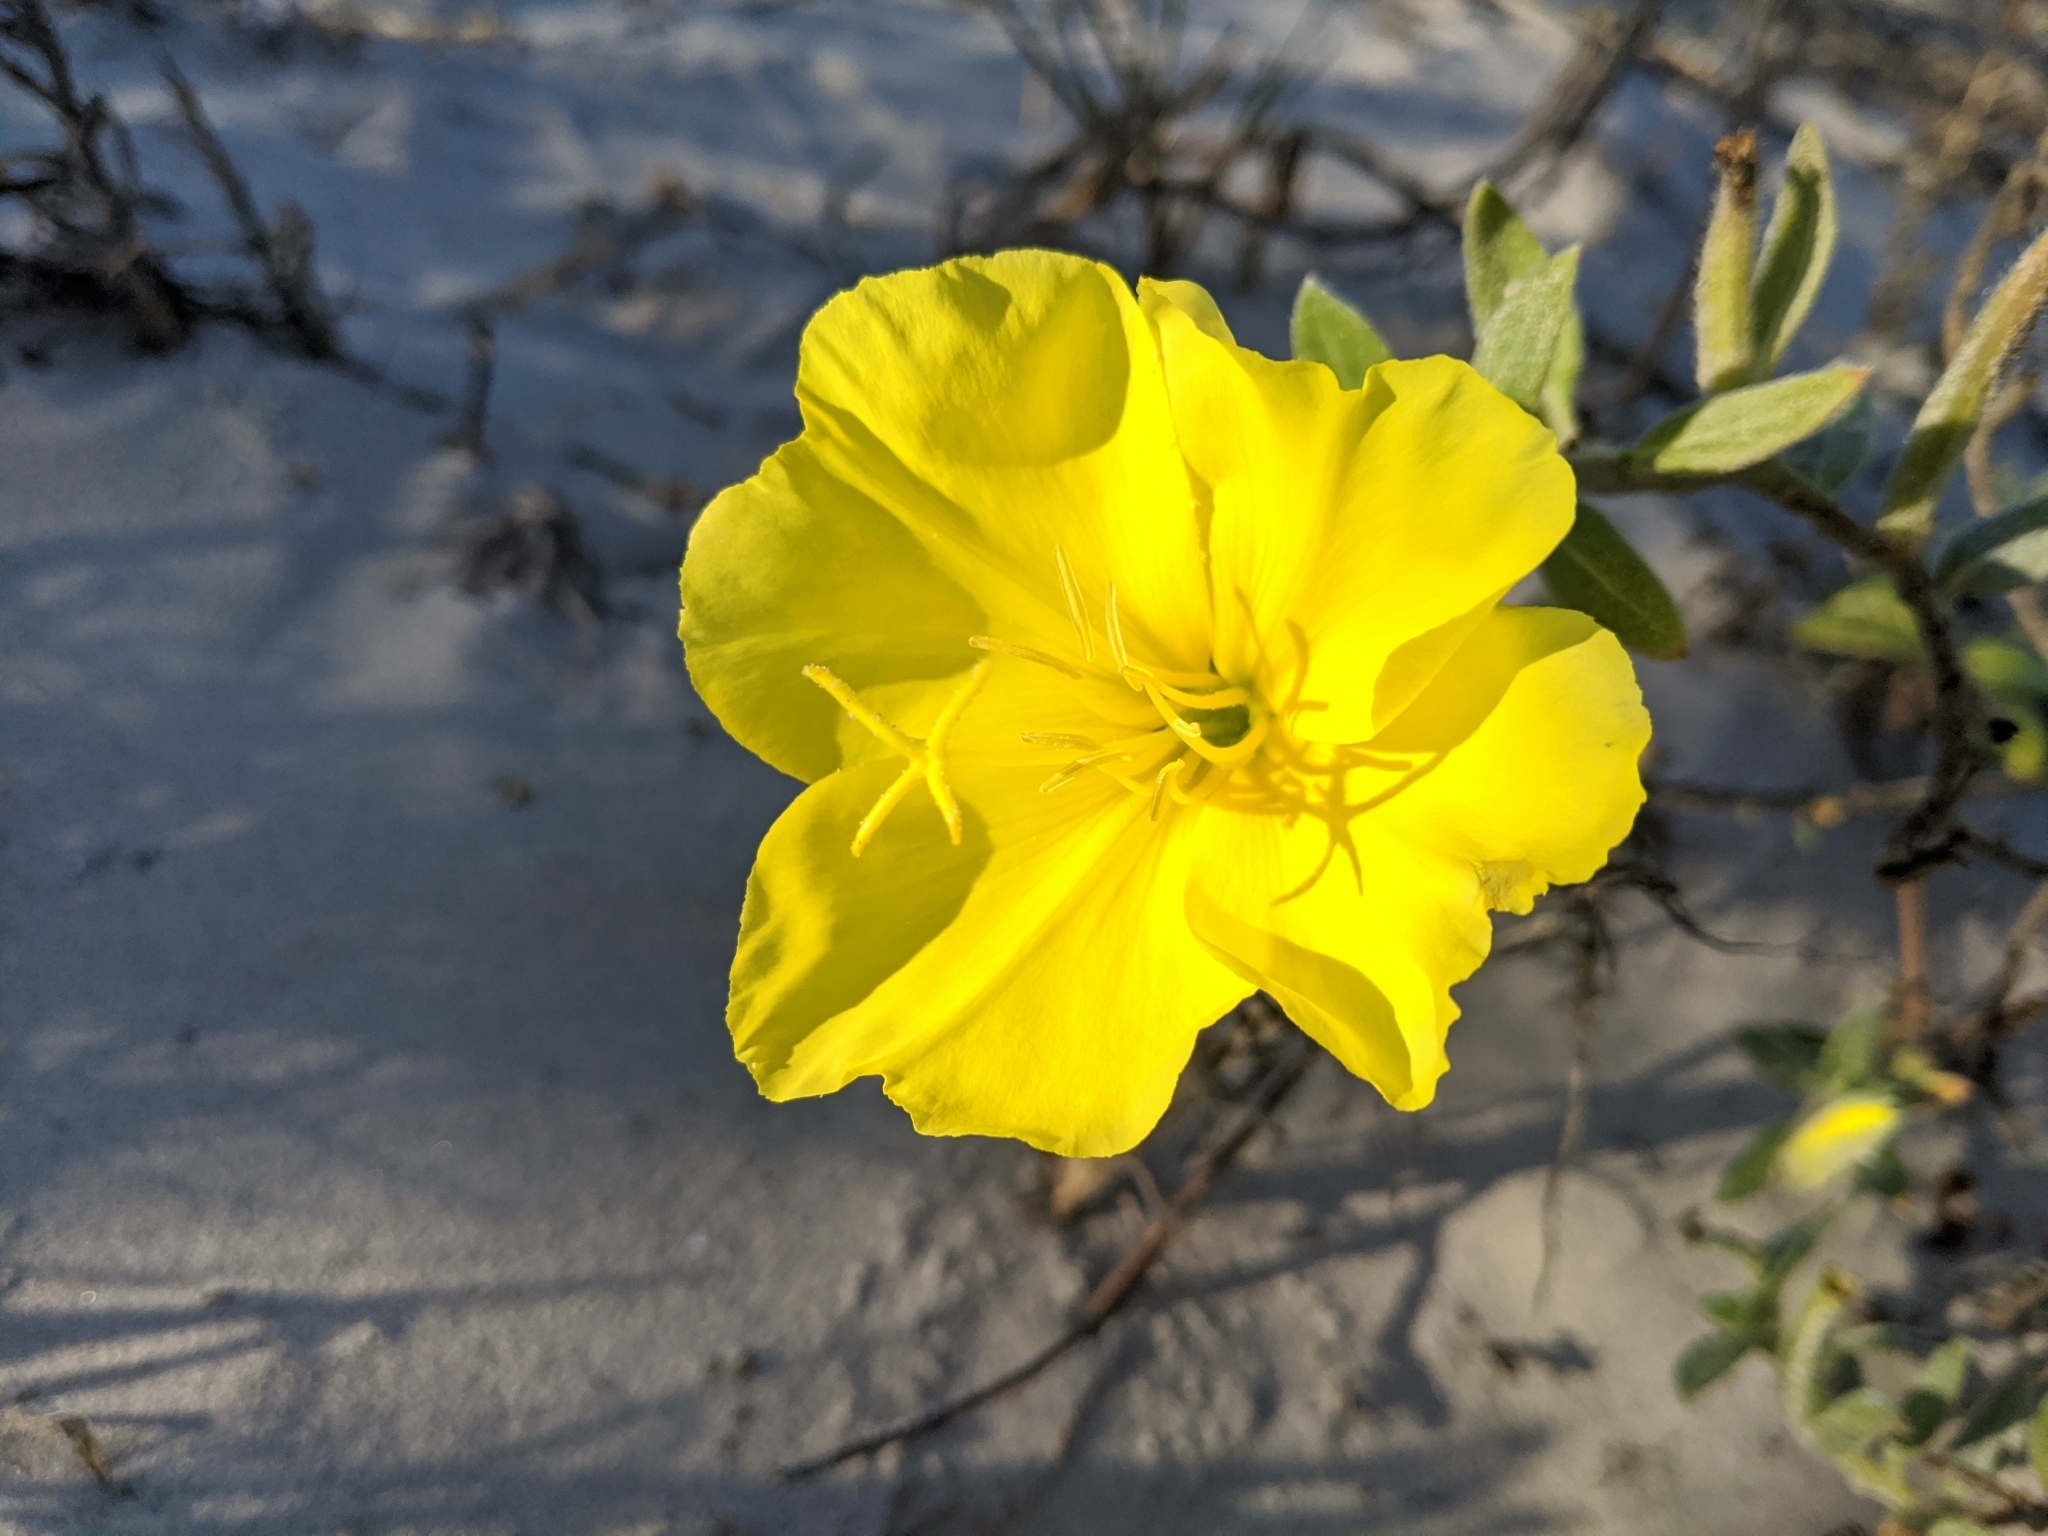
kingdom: Plantae
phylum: Tracheophyta
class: Magnoliopsida
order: Myrtales
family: Onagraceae
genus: Oenothera
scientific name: Oenothera drummondii
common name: Beach evening-primrose
